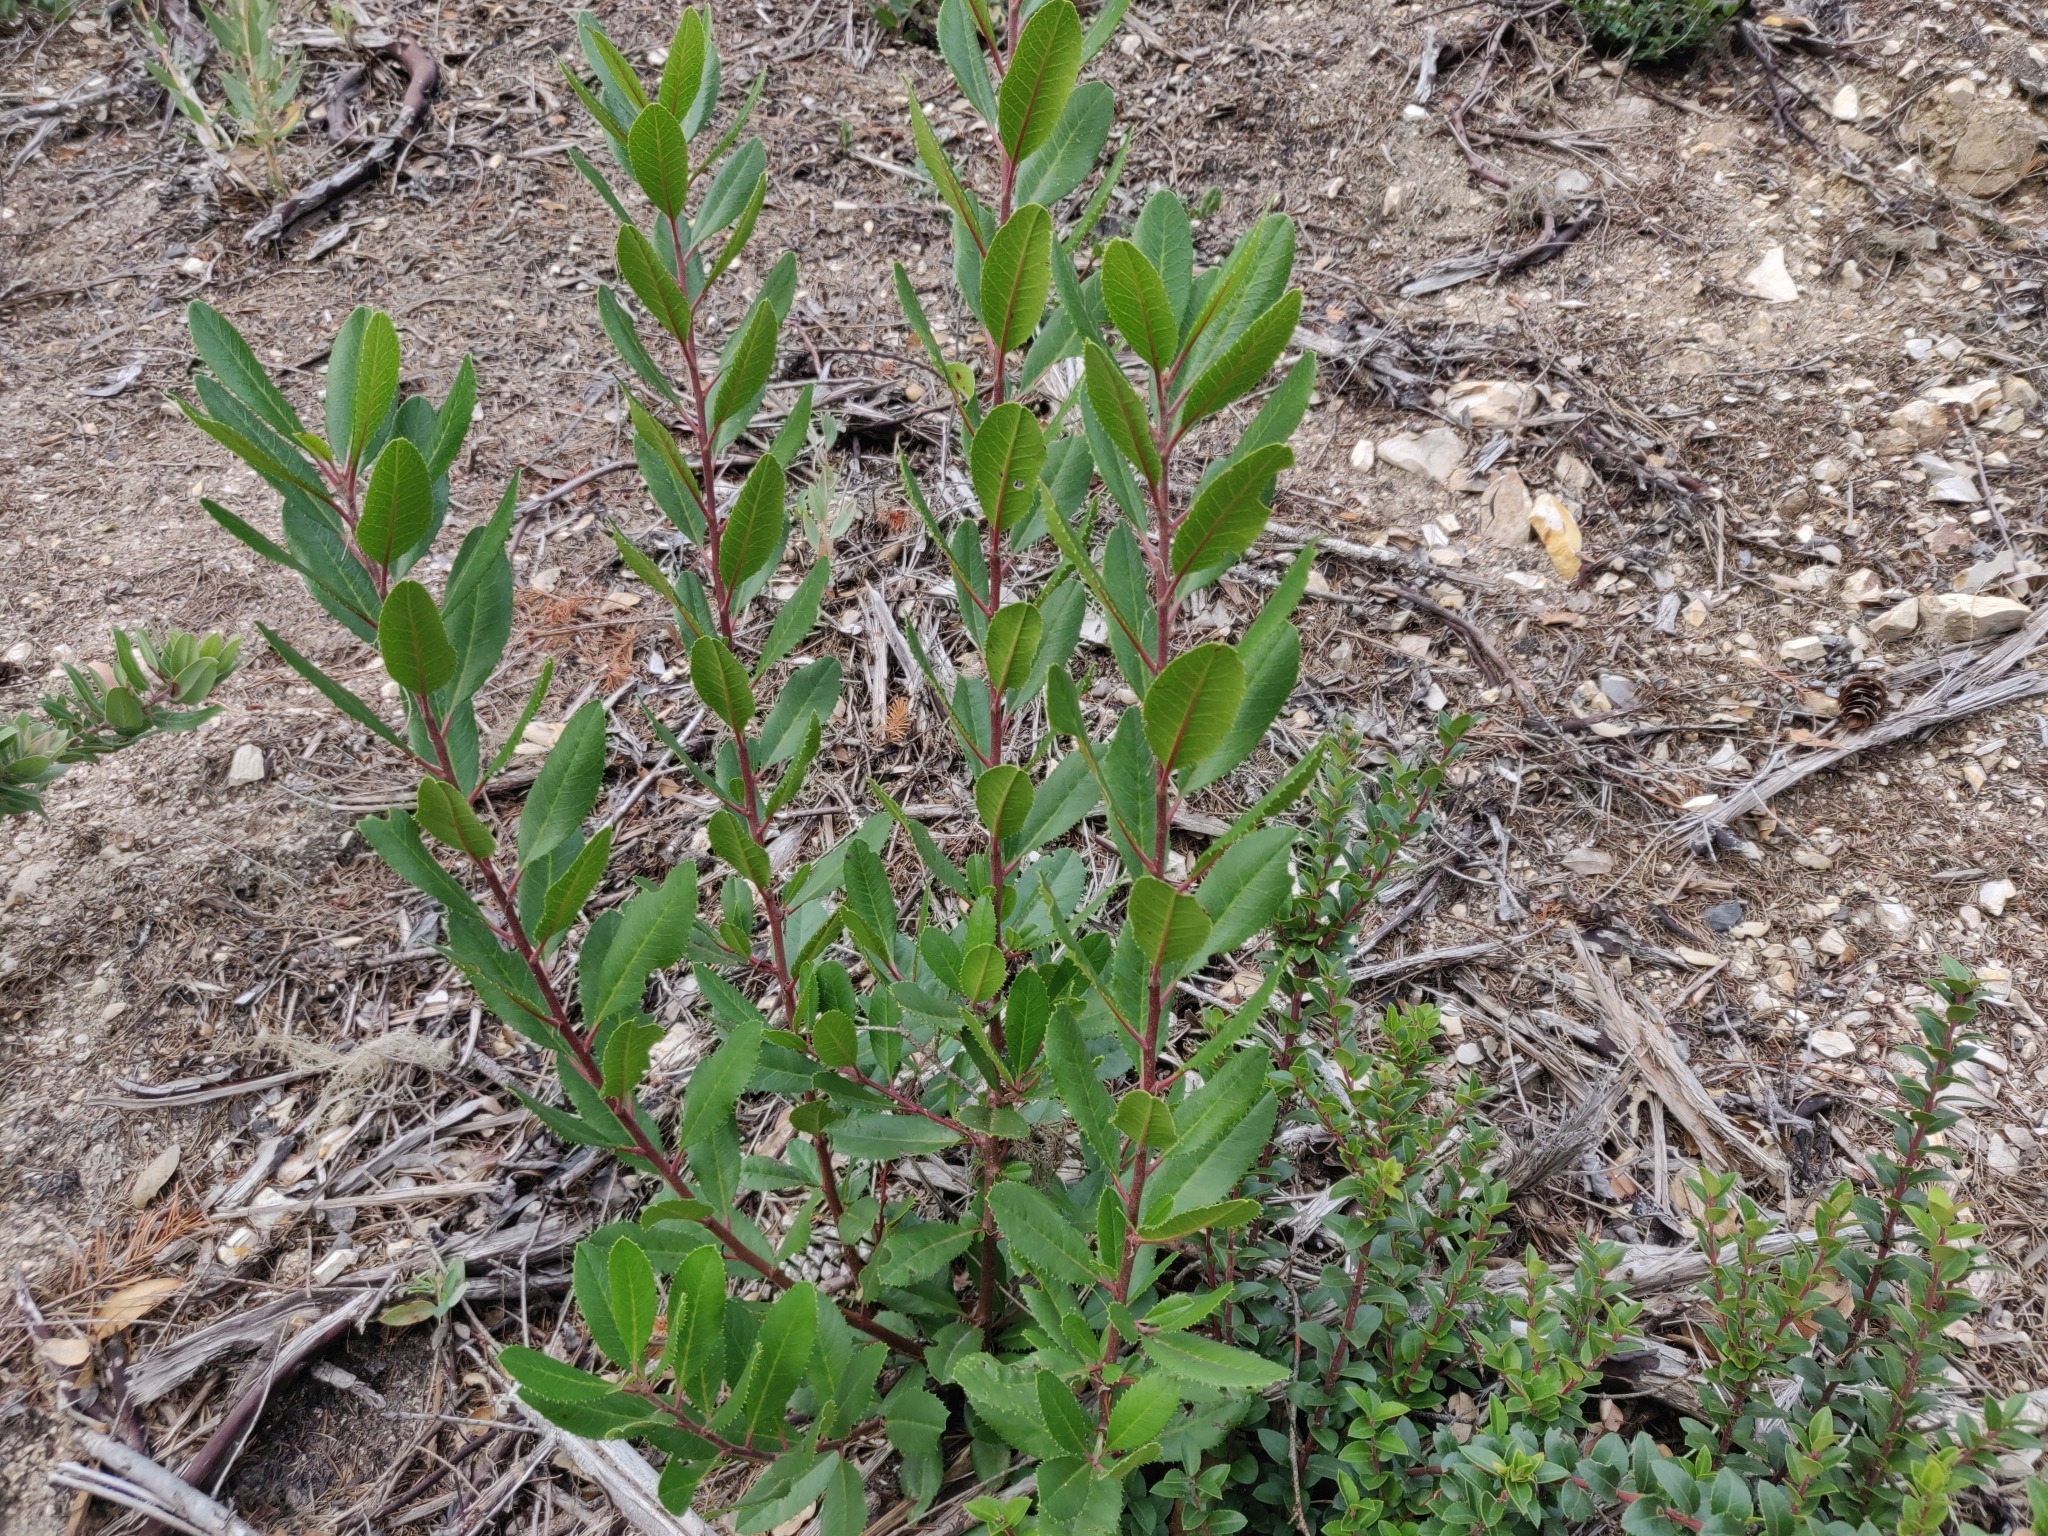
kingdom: Plantae
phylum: Tracheophyta
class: Magnoliopsida
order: Rosales
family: Rosaceae
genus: Heteromeles
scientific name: Heteromeles arbutifolia
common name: California-holly
